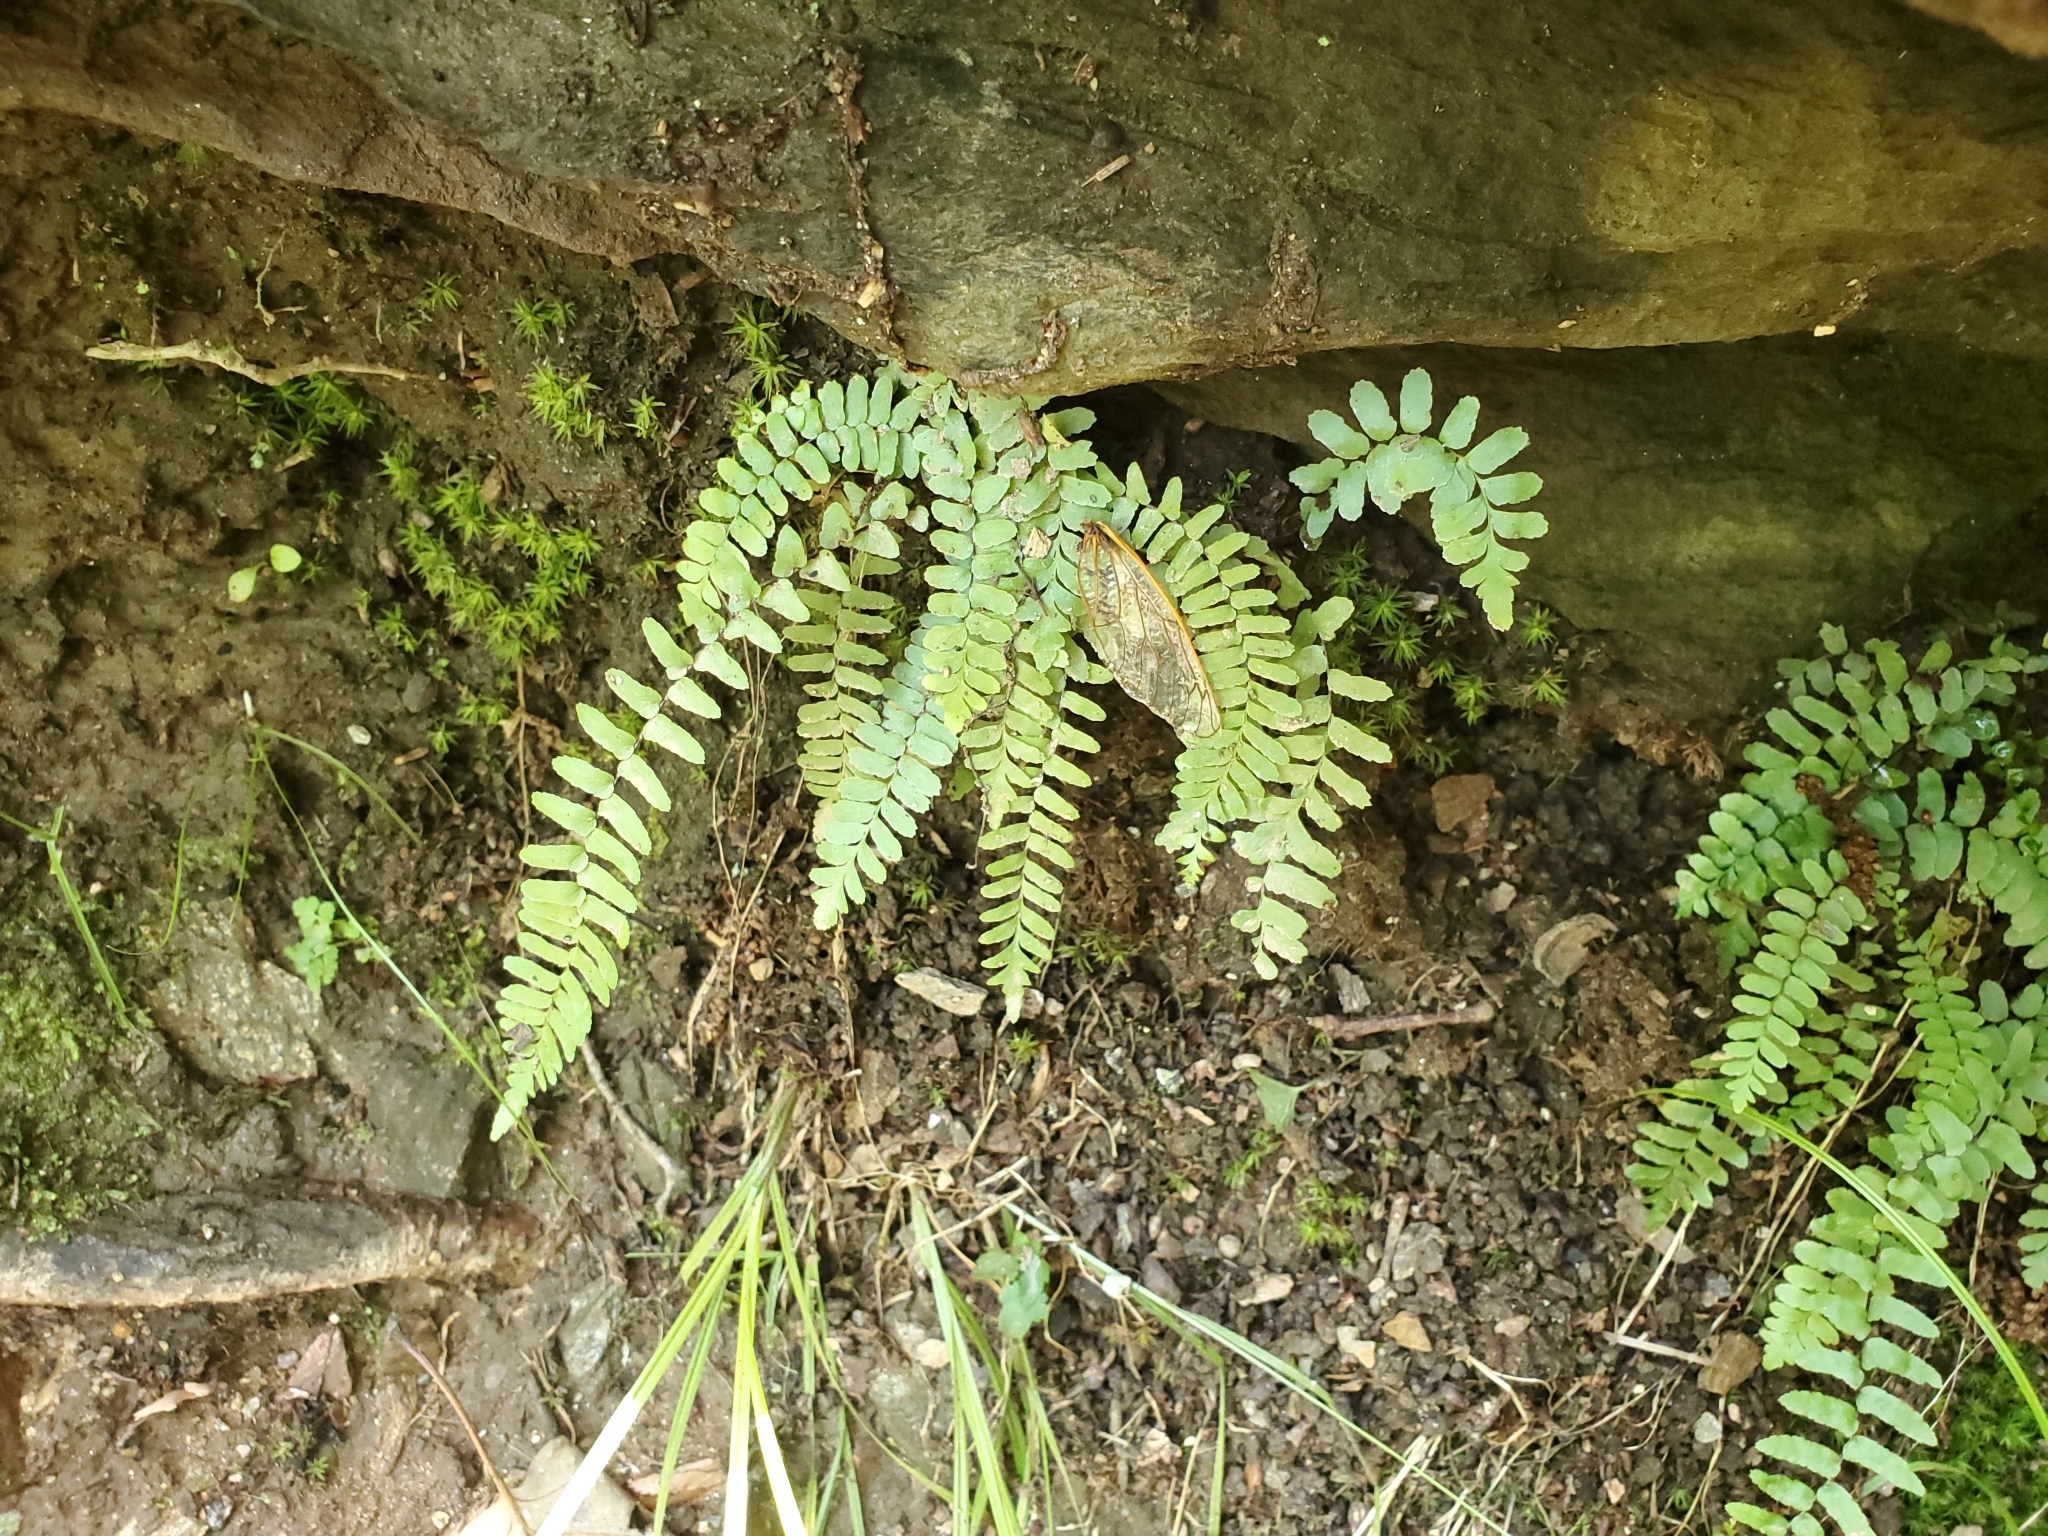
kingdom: Plantae
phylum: Tracheophyta
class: Polypodiopsida
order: Polypodiales
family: Aspleniaceae
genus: Asplenium
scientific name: Asplenium platyneuron
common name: Ebony spleenwort
